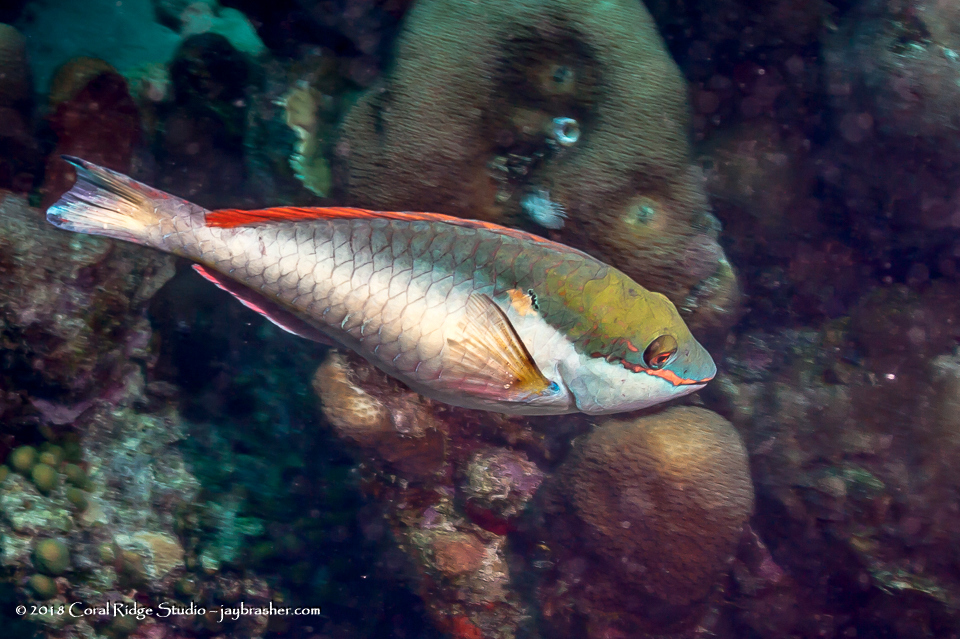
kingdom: Animalia
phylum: Chordata
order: Perciformes
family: Scaridae
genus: Sparisoma
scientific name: Sparisoma aurofrenatum
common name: Redband parrotfish
